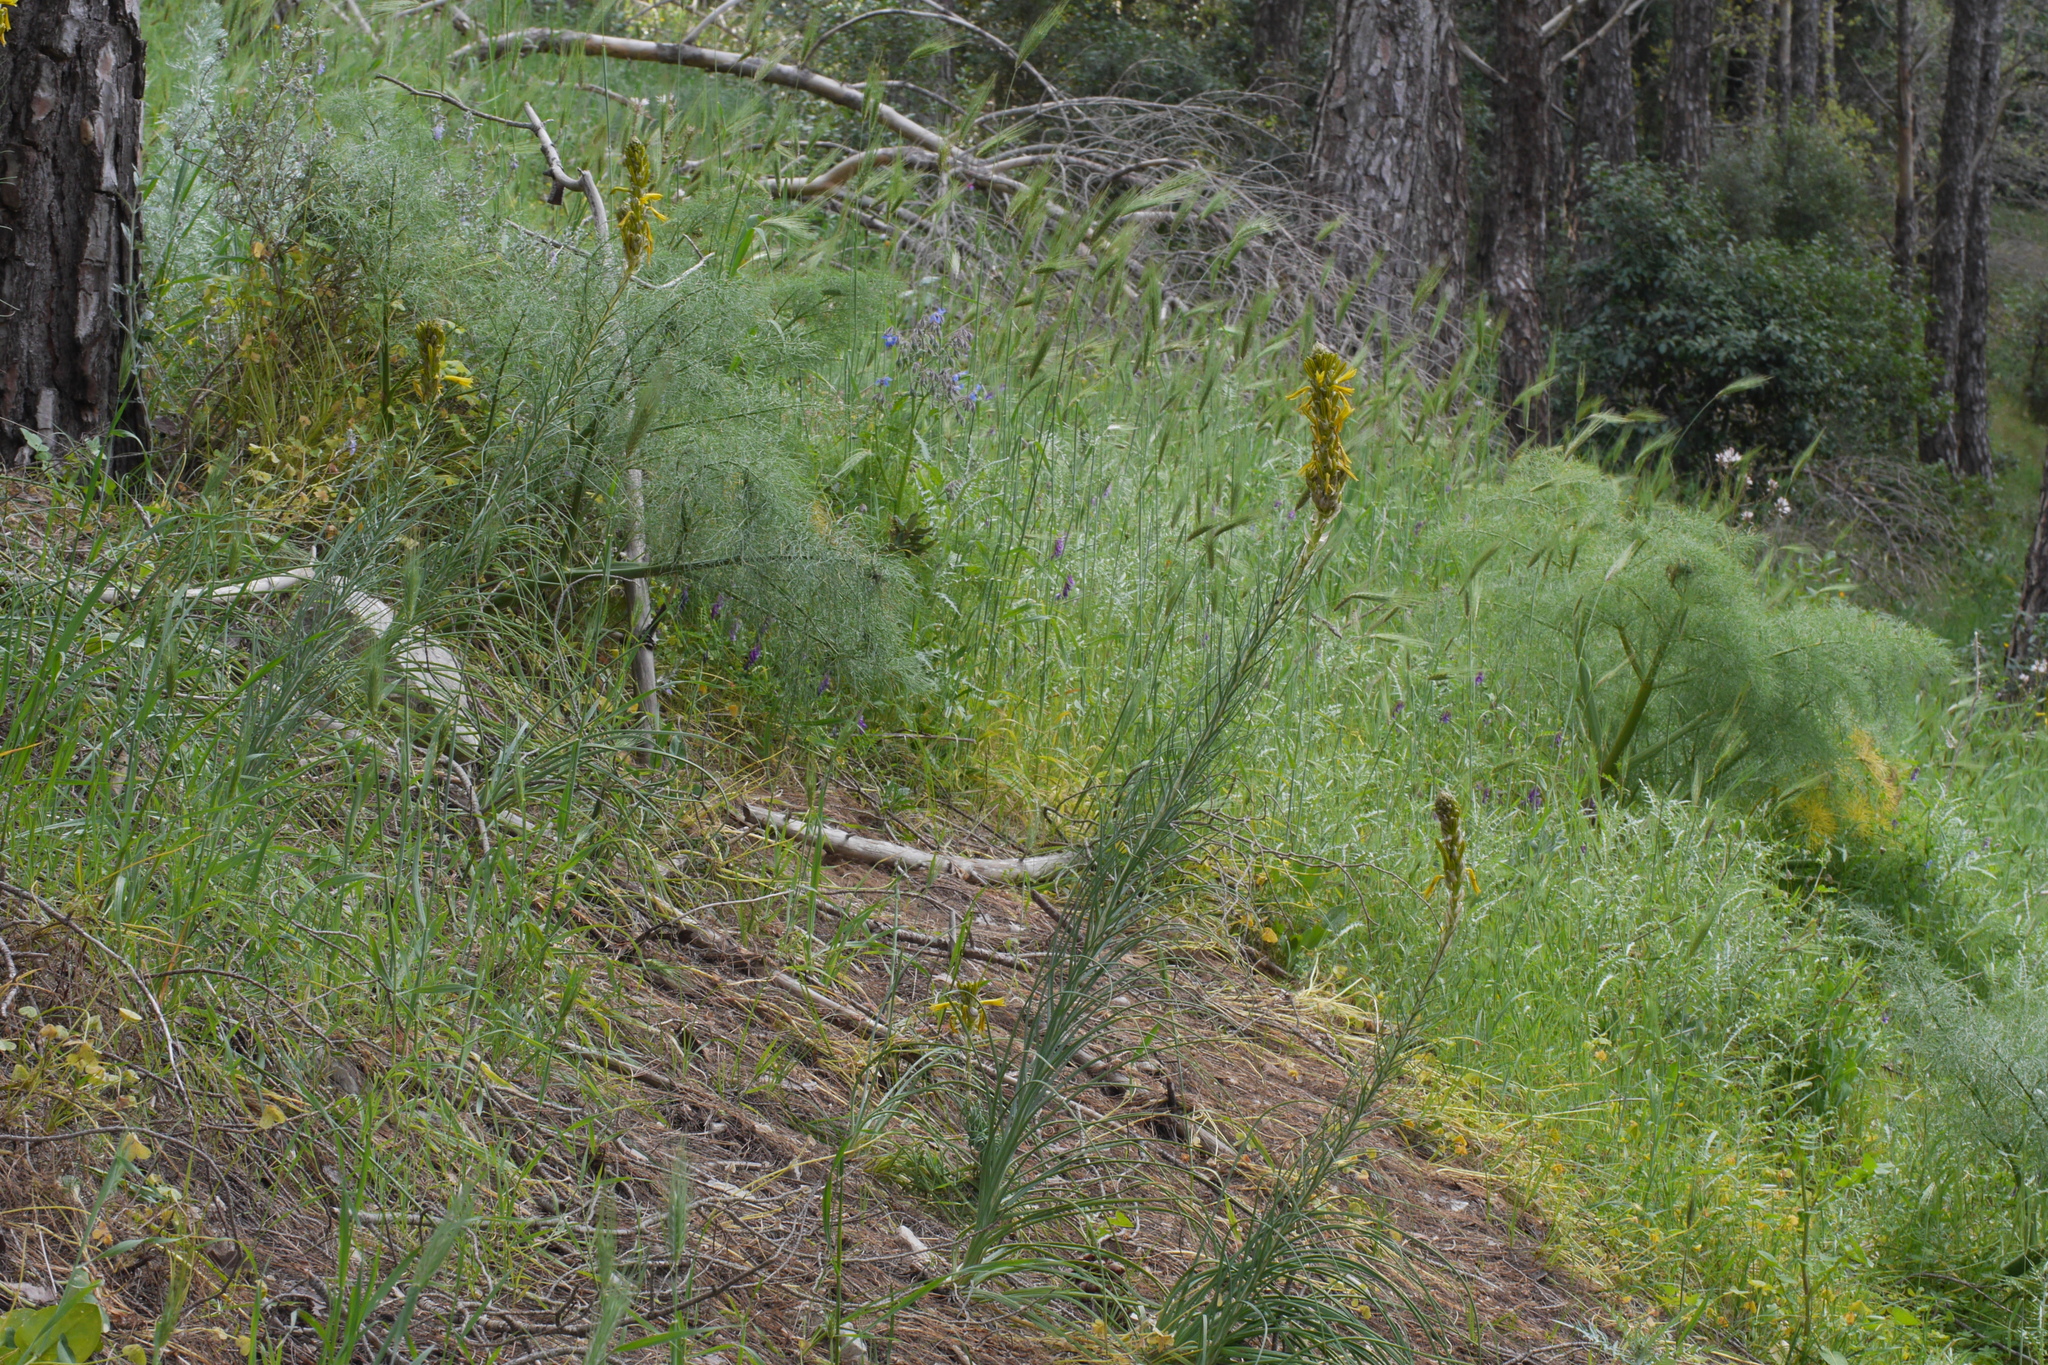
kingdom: Plantae
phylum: Tracheophyta
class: Liliopsida
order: Asparagales
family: Asphodelaceae
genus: Asphodeline
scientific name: Asphodeline lutea
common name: Yellow asphodel
